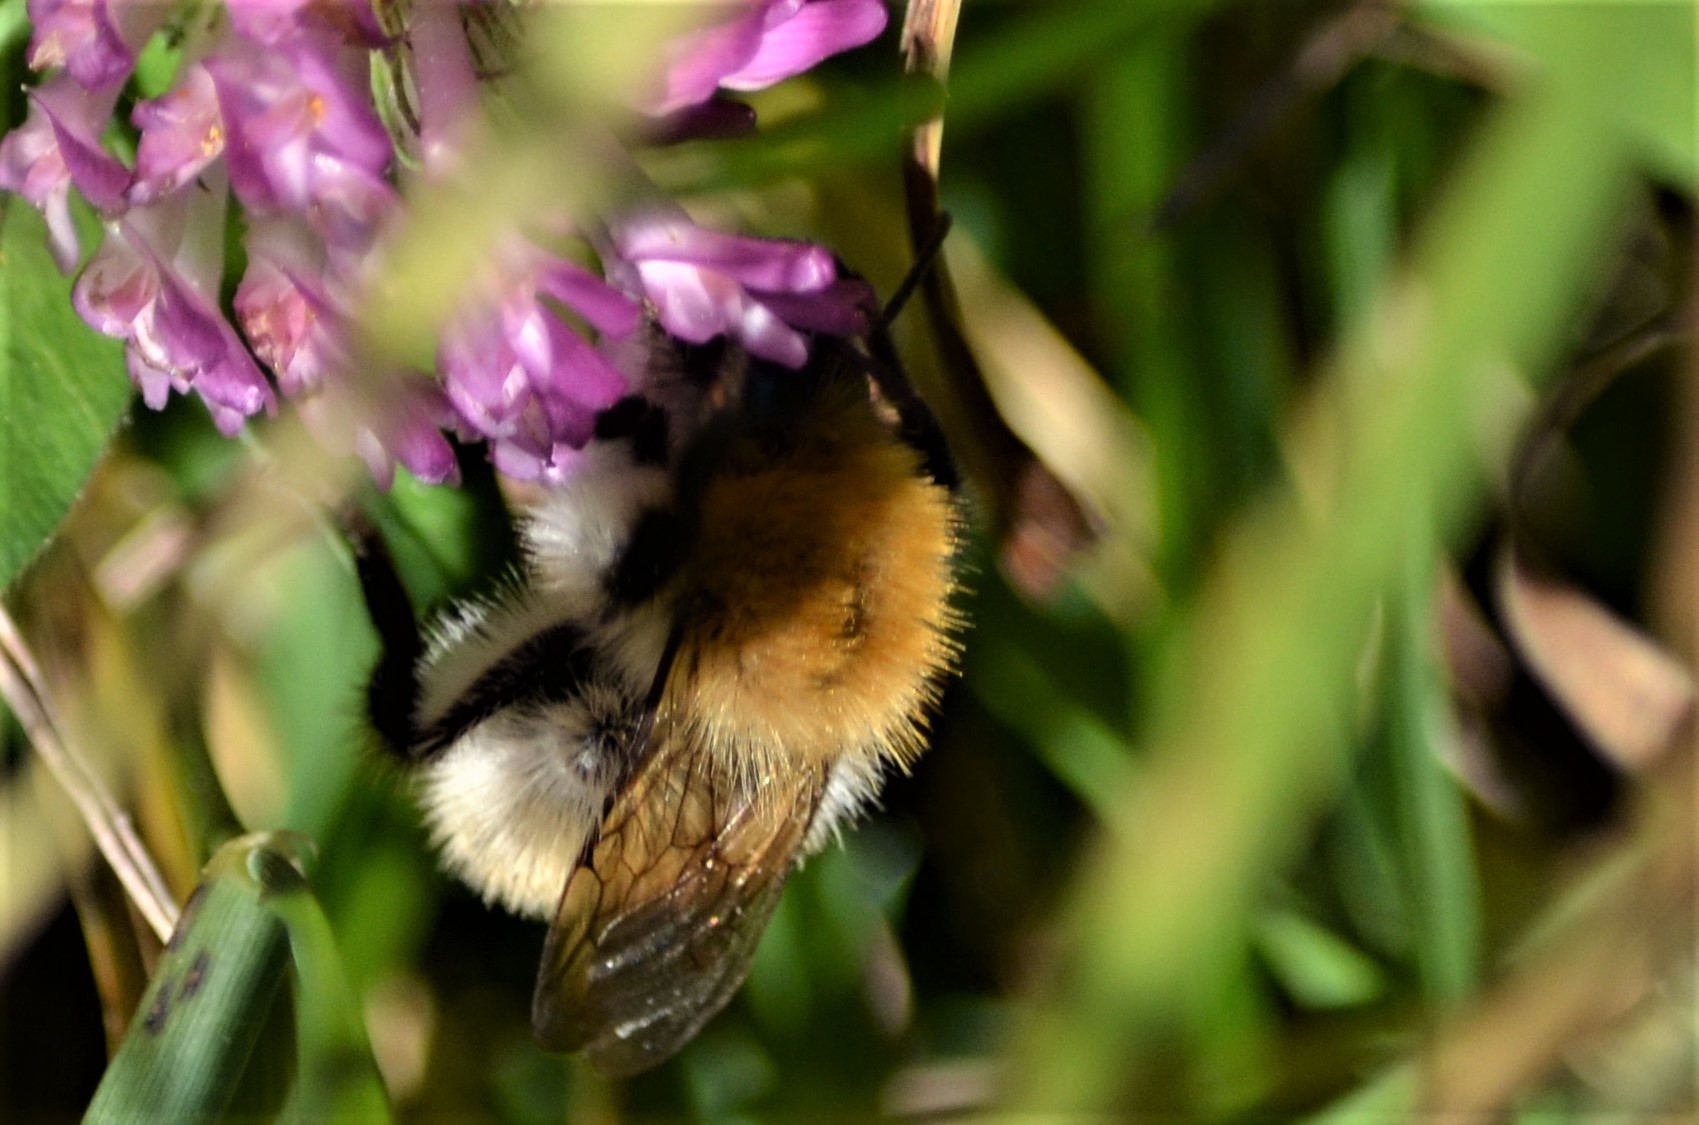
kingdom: Animalia
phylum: Arthropoda
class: Insecta
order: Hymenoptera
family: Apidae
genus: Bombus
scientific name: Bombus pascuorum
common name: Common carder bee
